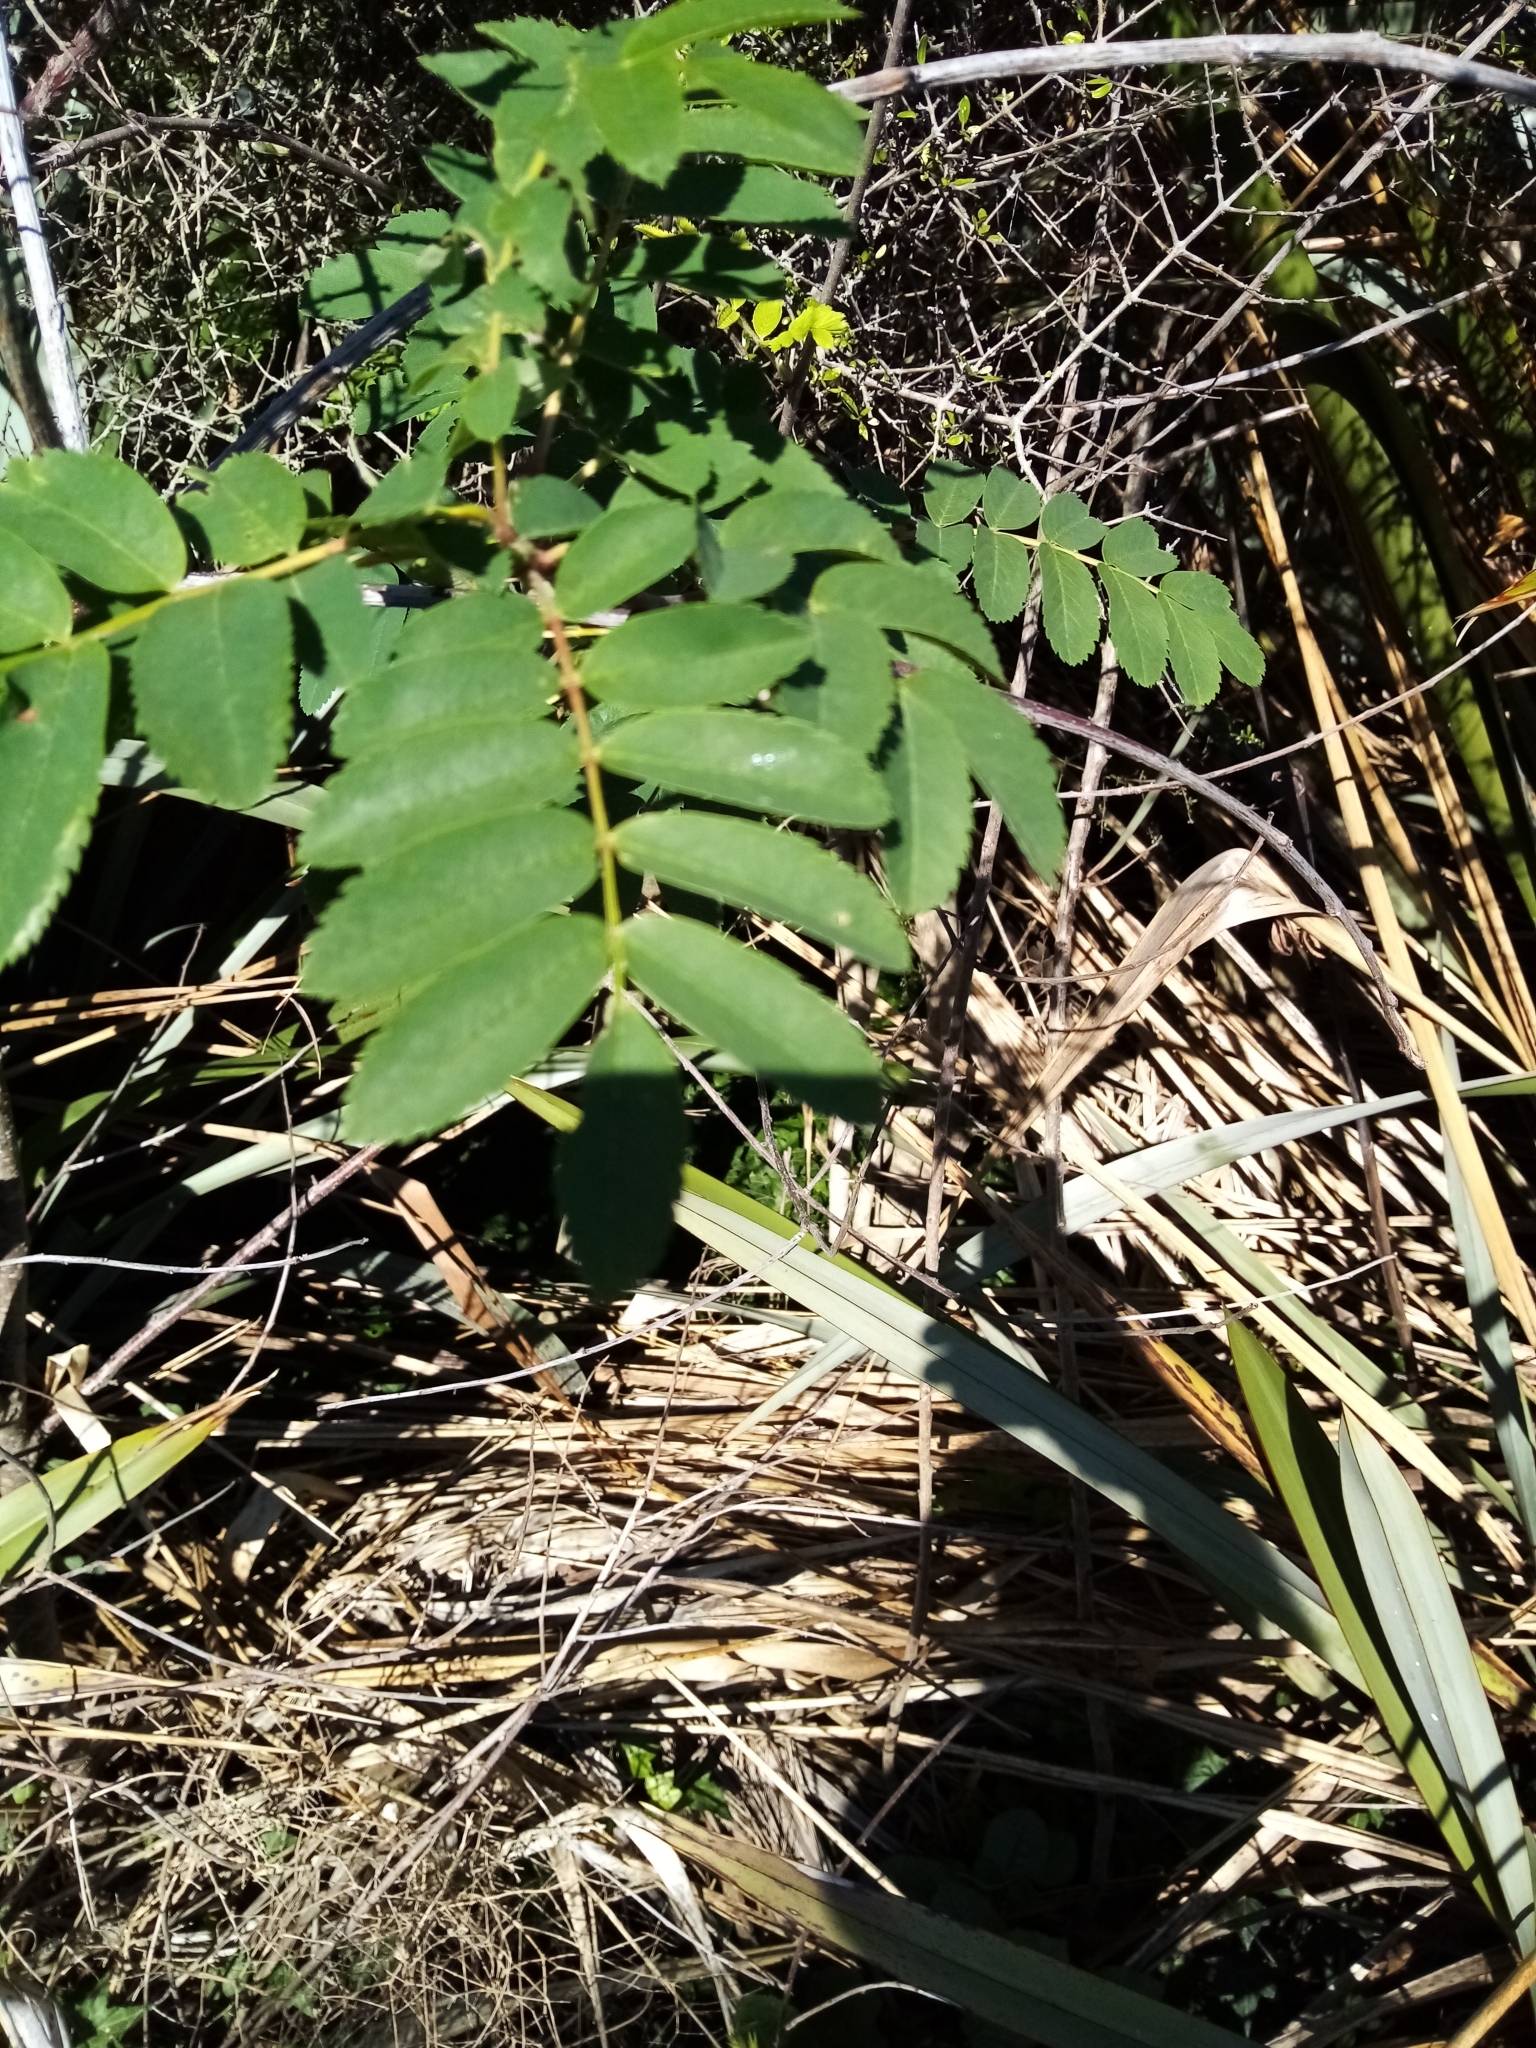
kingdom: Plantae
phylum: Tracheophyta
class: Magnoliopsida
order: Rosales
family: Rosaceae
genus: Sorbus
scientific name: Sorbus aucuparia
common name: Rowan
